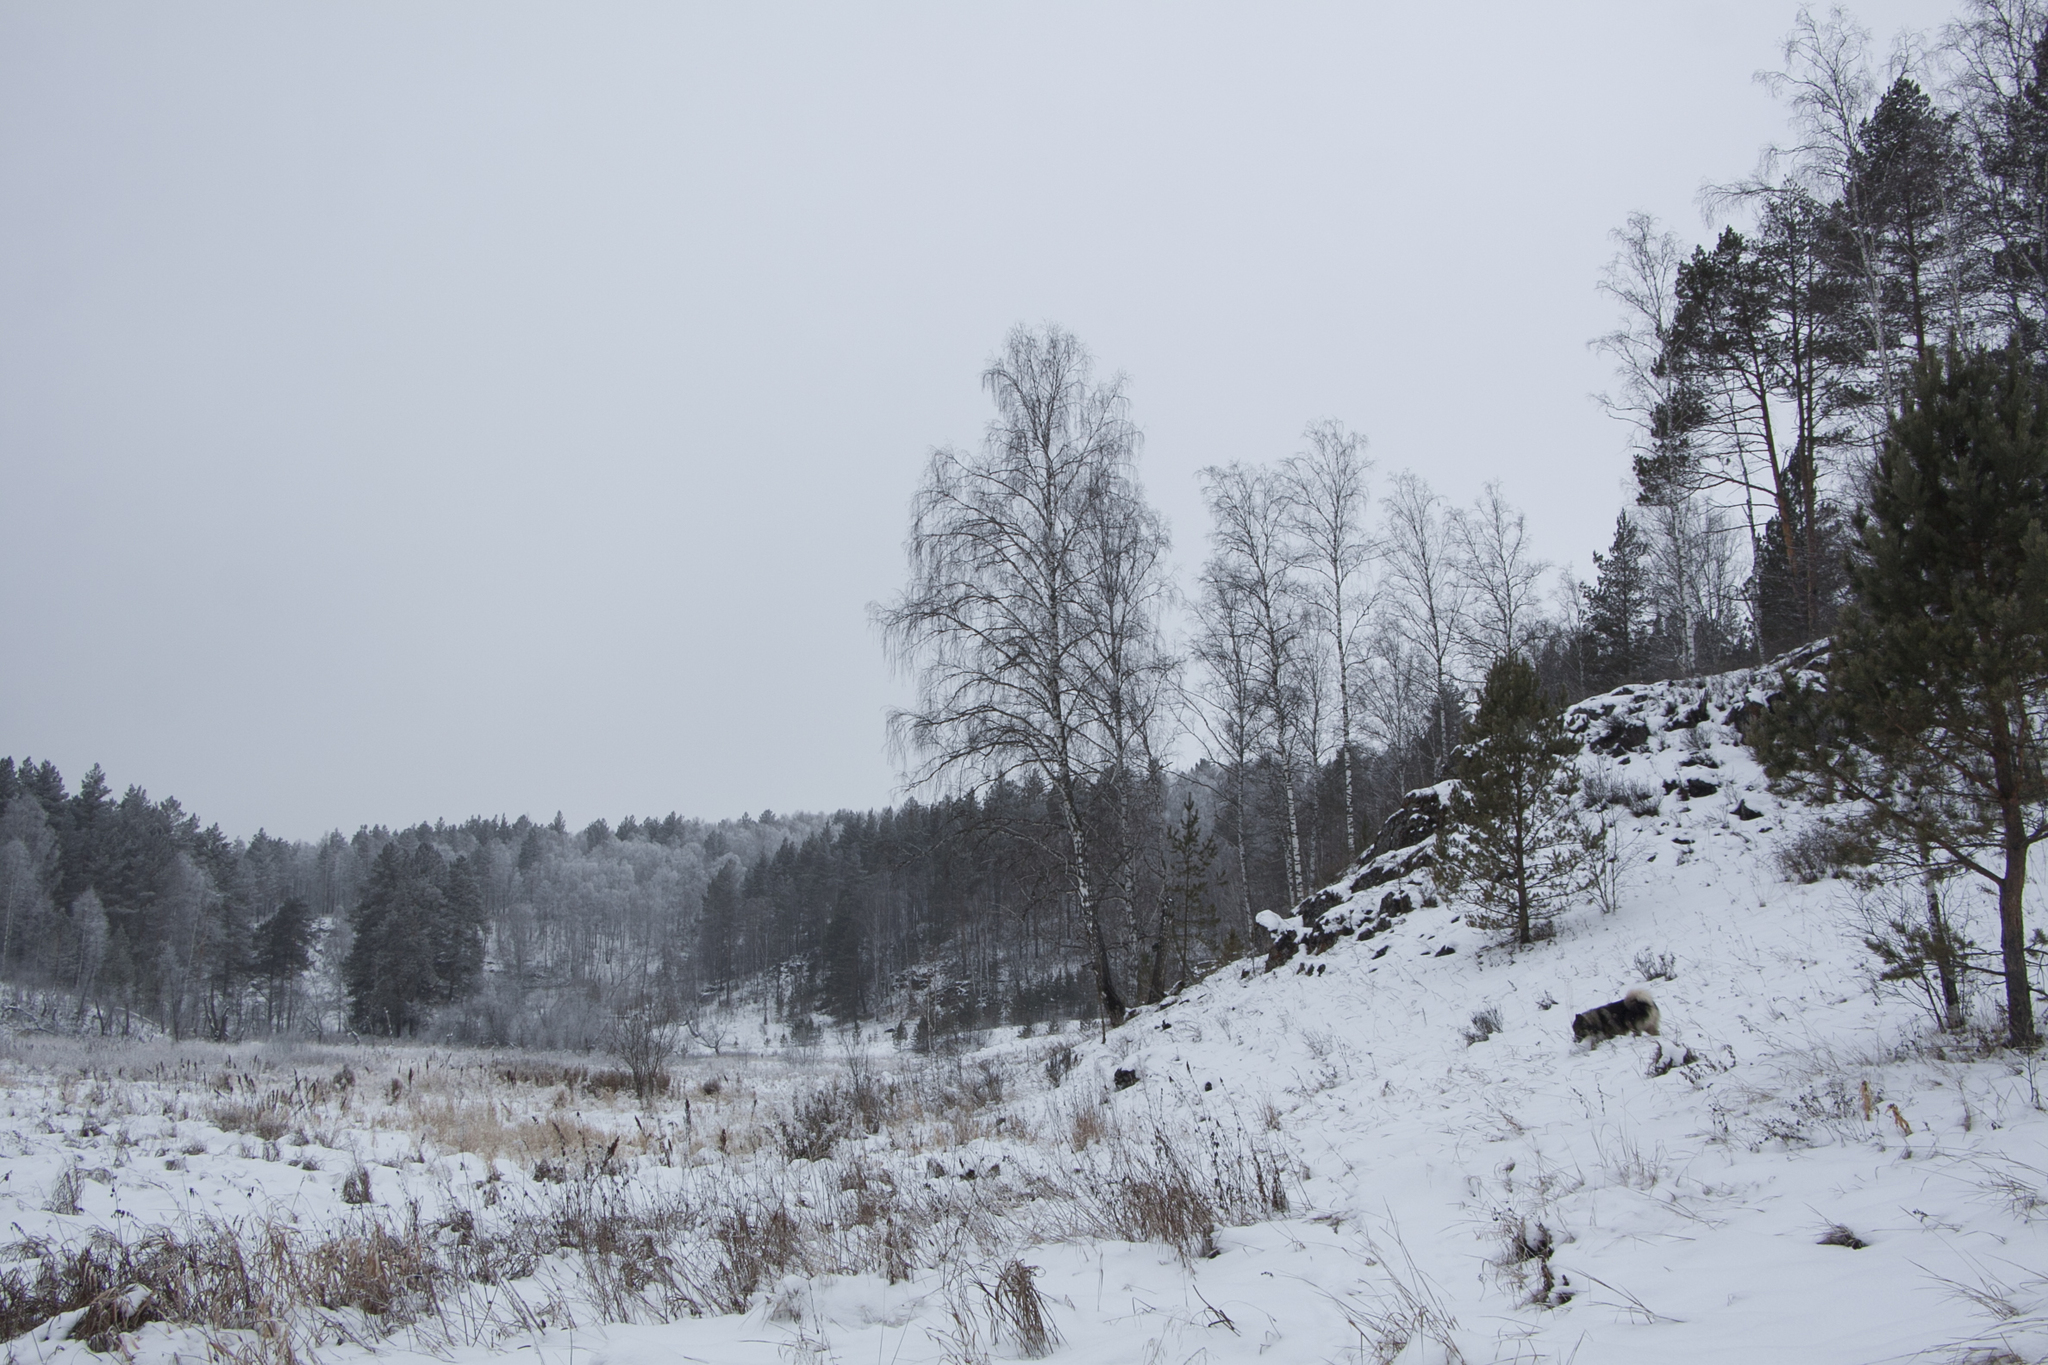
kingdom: Plantae
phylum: Tracheophyta
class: Magnoliopsida
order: Fagales
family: Betulaceae
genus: Betula
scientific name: Betula pendula
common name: Silver birch
